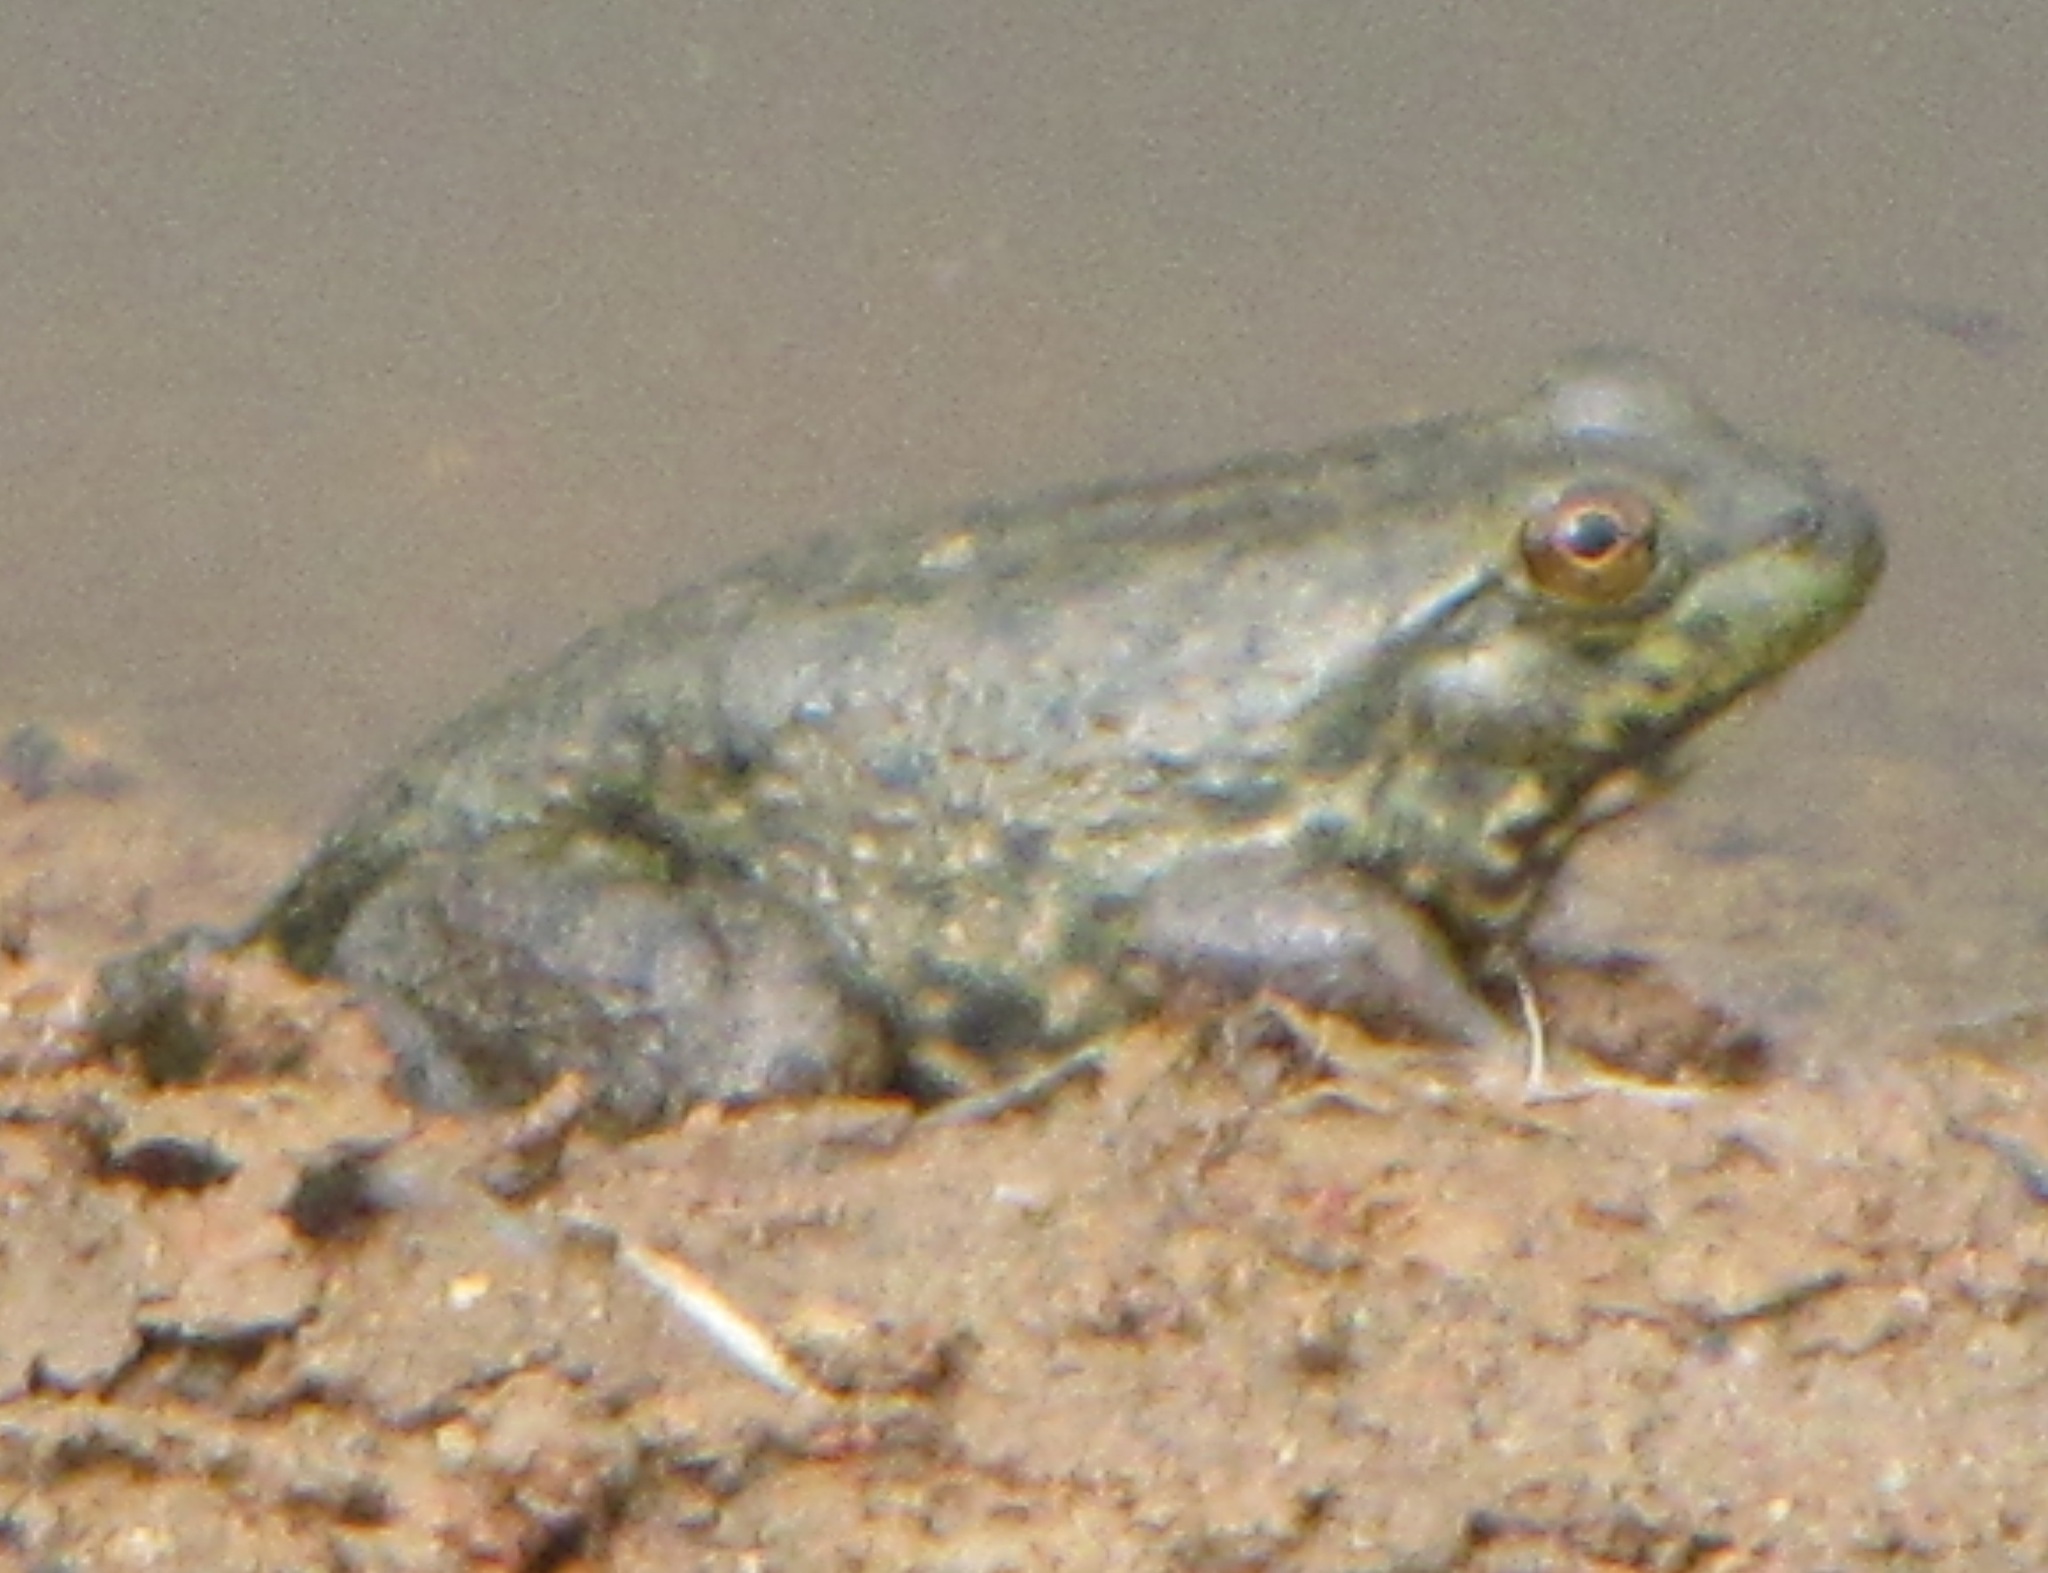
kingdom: Animalia
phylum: Chordata
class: Amphibia
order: Anura
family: Ranidae
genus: Lithobates
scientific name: Lithobates catesbeianus
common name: American bullfrog
